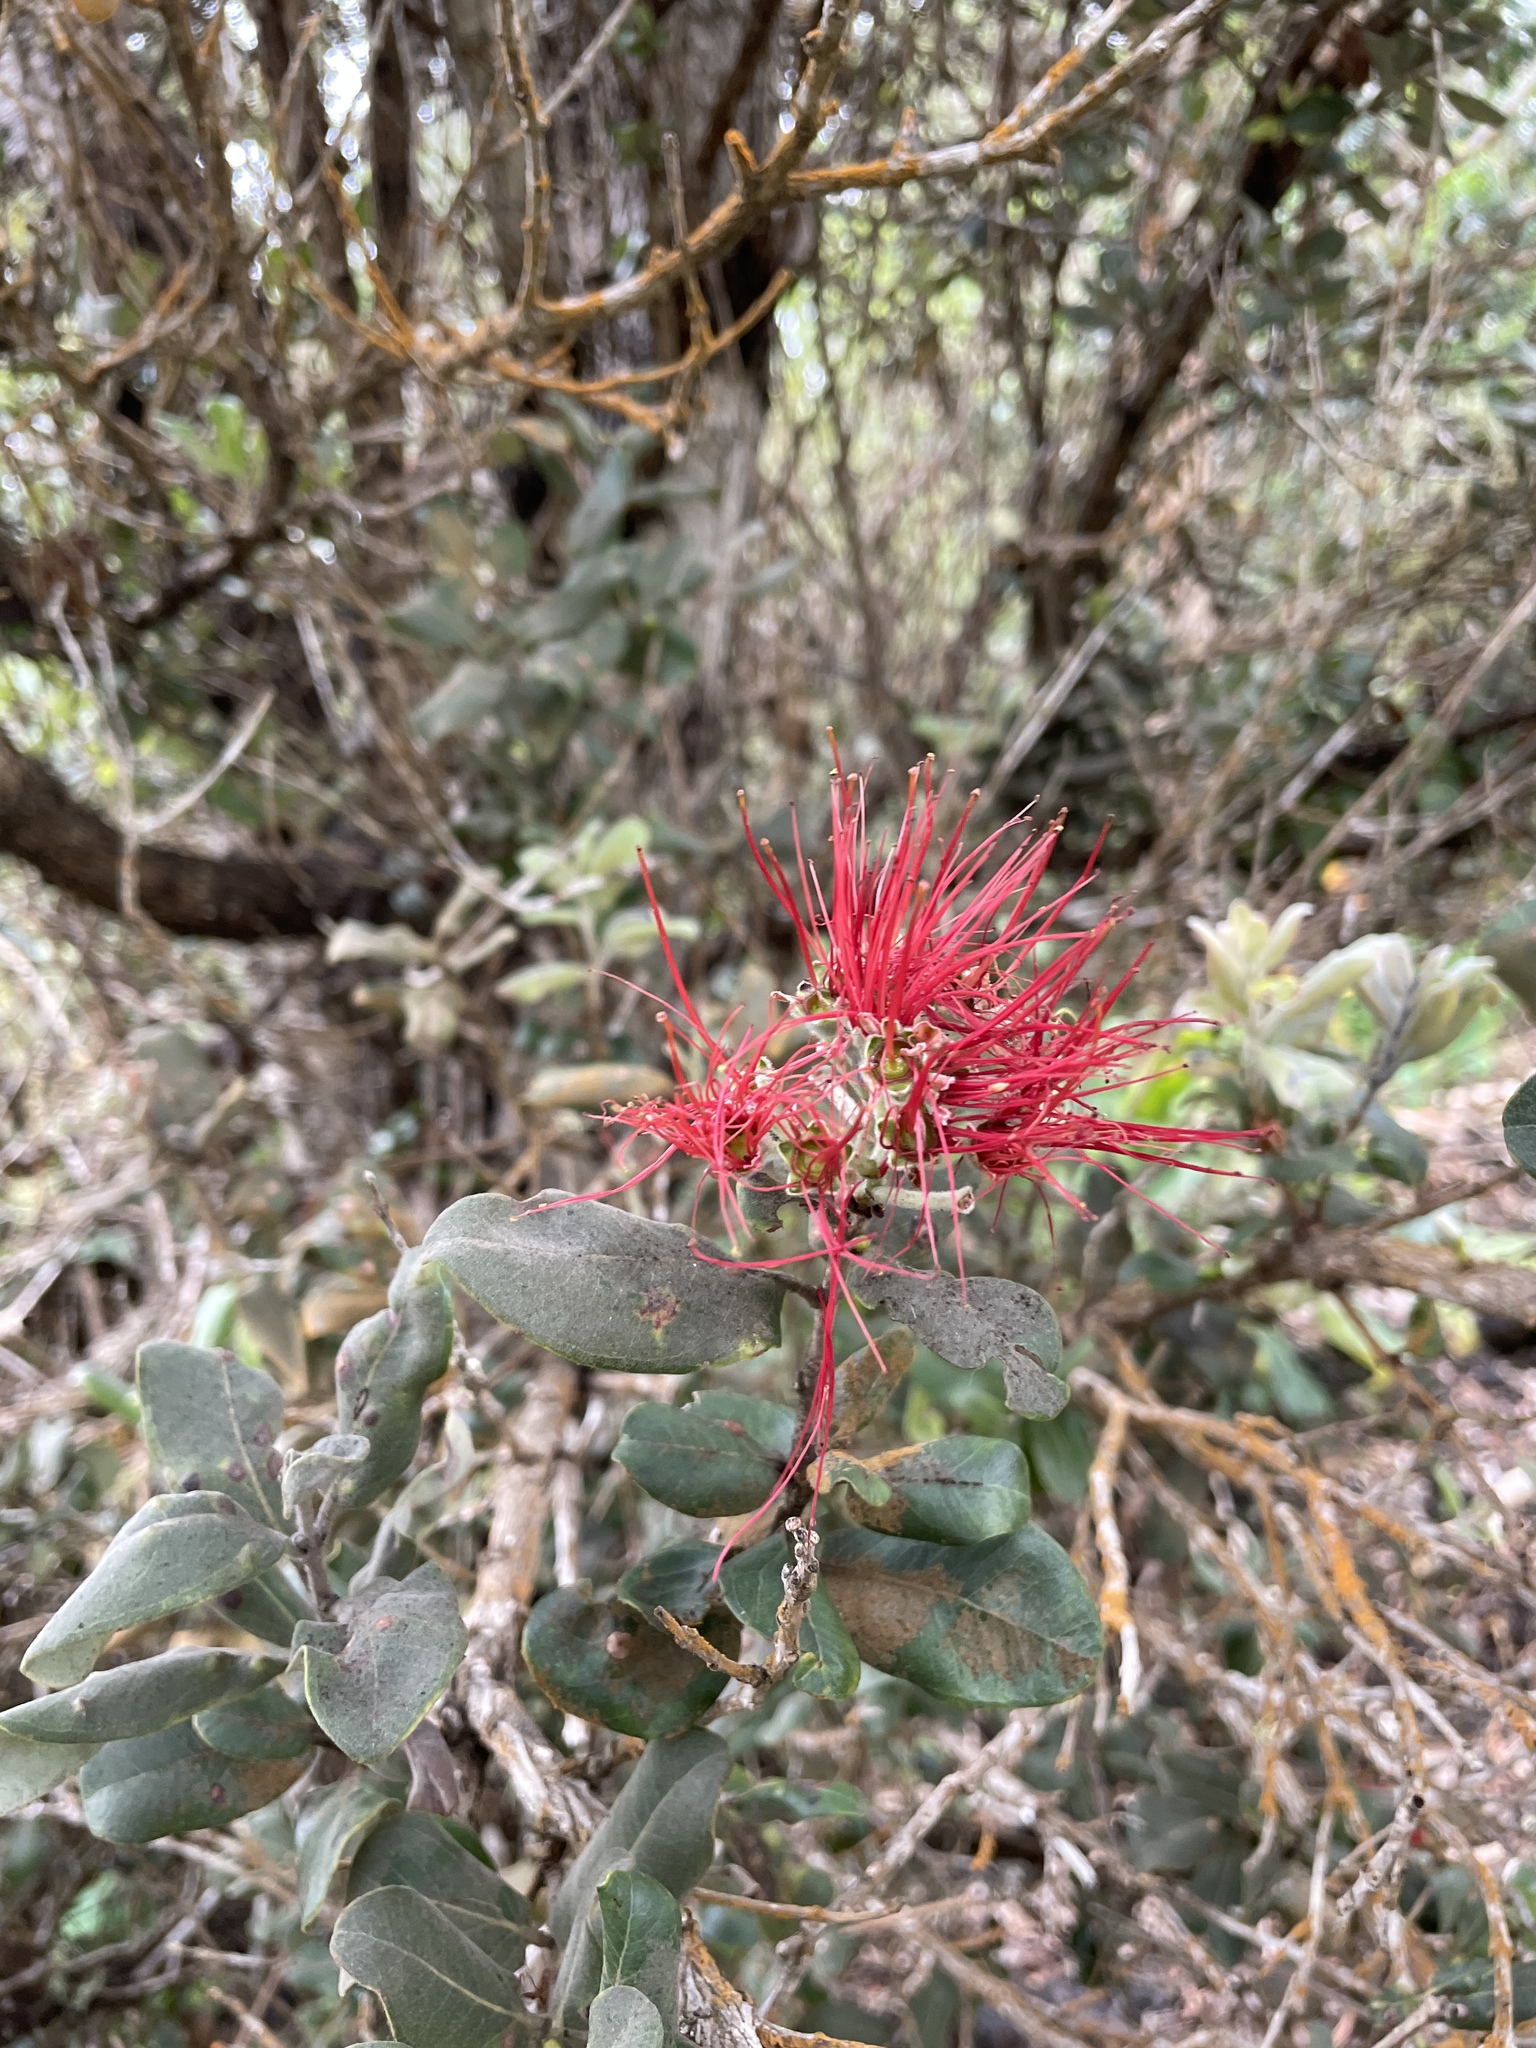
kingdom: Plantae
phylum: Tracheophyta
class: Magnoliopsida
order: Myrtales
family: Myrtaceae
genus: Metrosideros
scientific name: Metrosideros polymorpha
